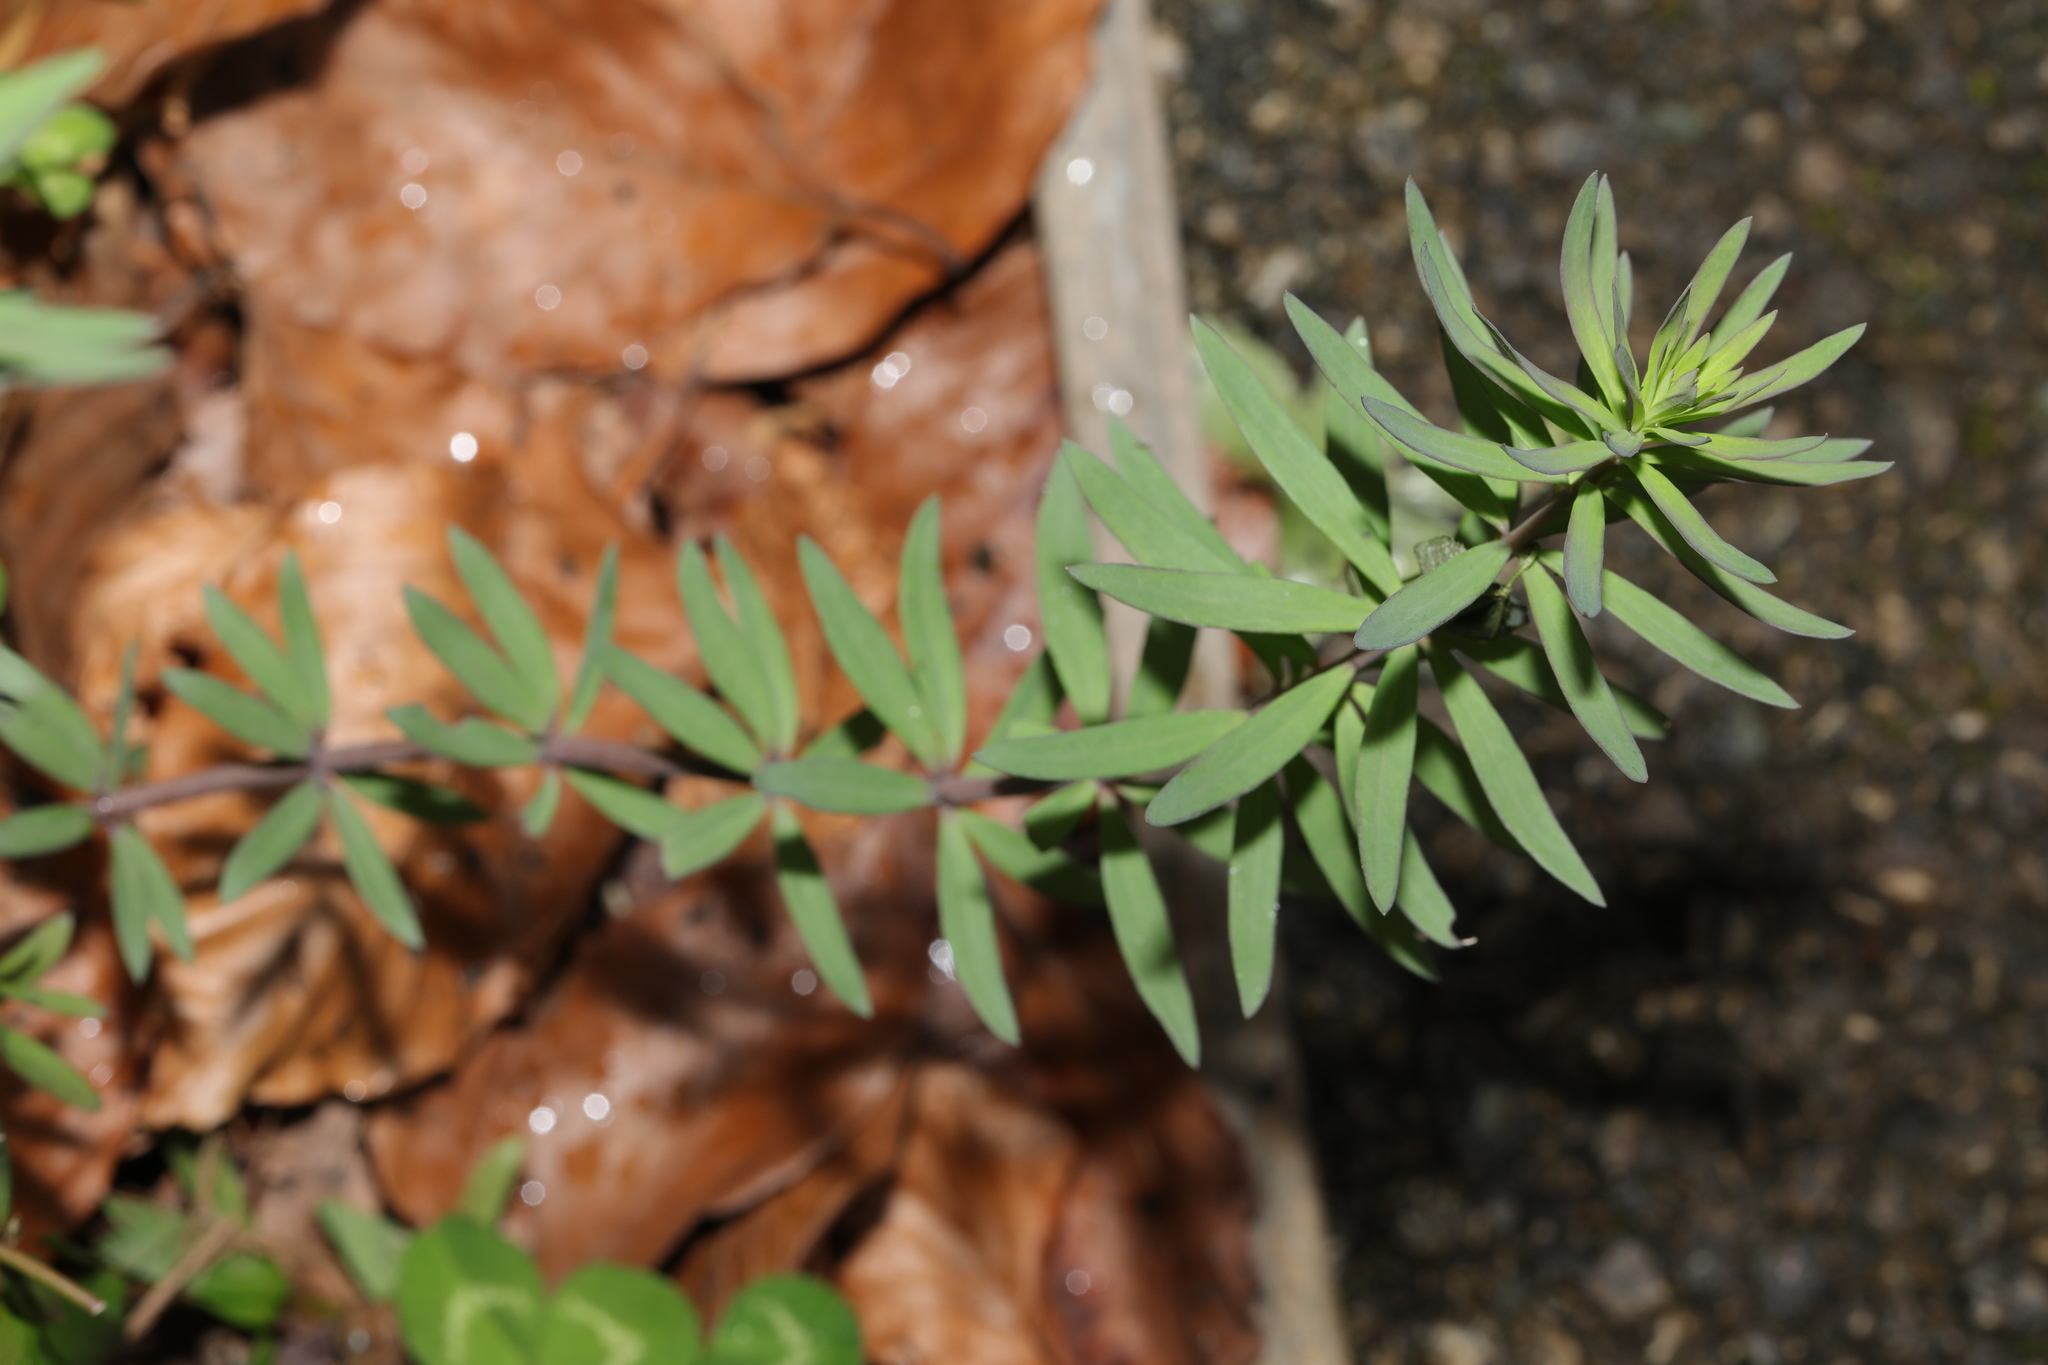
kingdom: Plantae
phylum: Tracheophyta
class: Magnoliopsida
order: Lamiales
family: Plantaginaceae
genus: Linaria
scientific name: Linaria purpurea
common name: Purple toadflax
